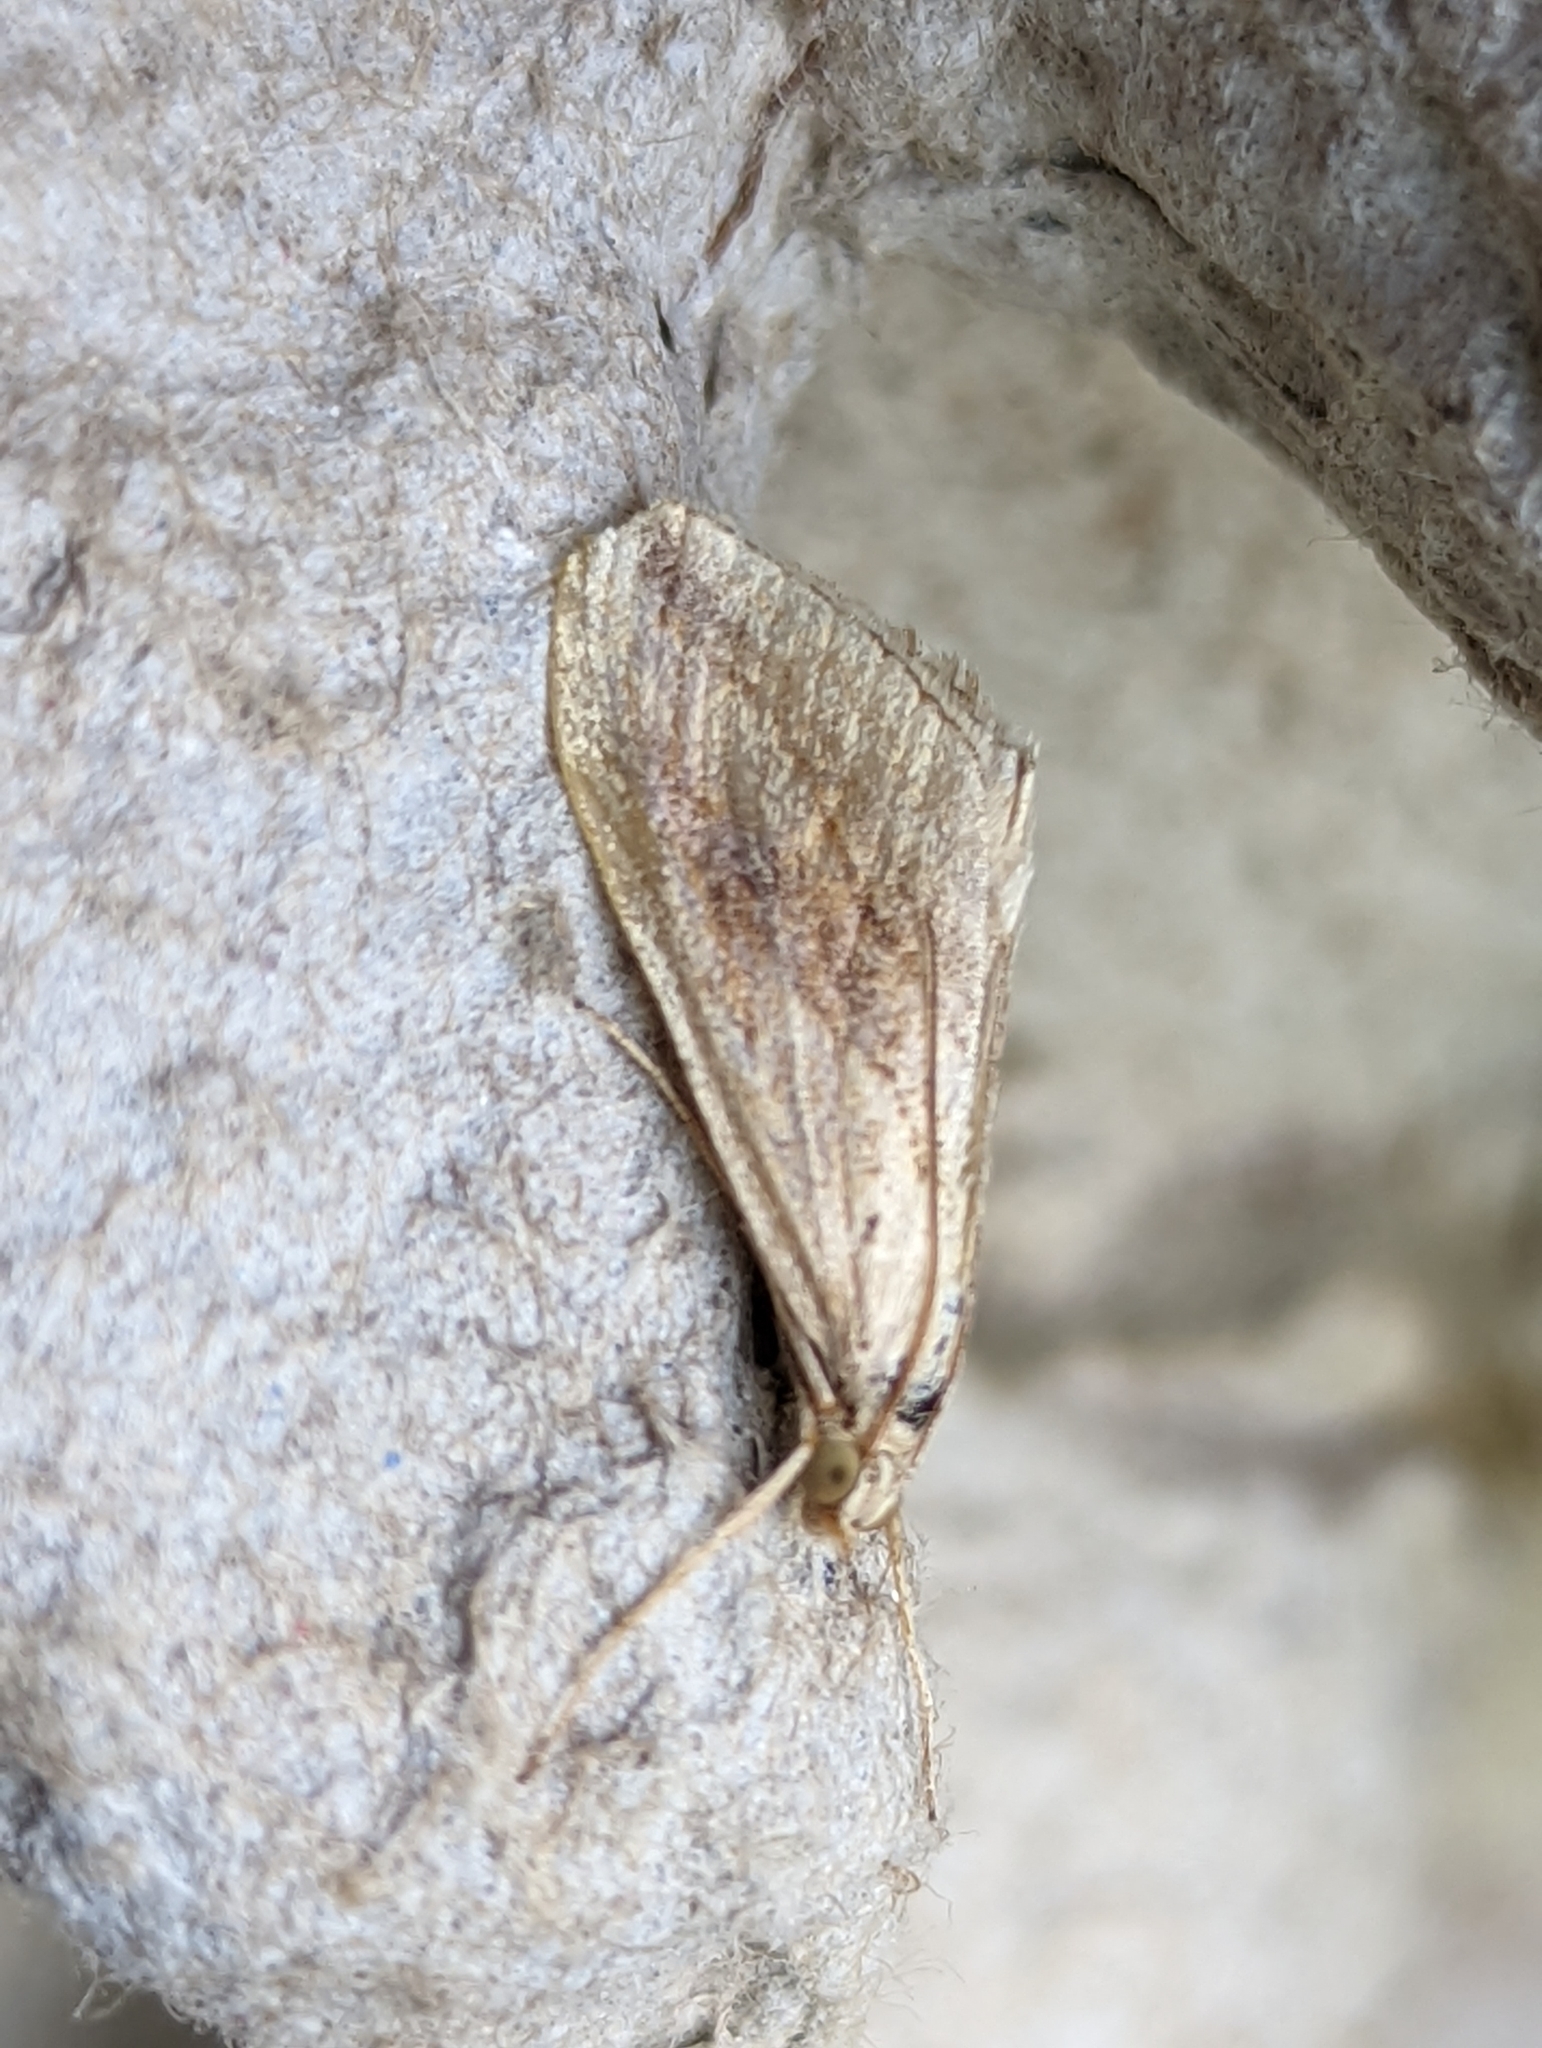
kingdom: Animalia
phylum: Arthropoda
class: Insecta
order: Lepidoptera
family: Crambidae
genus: Evergestis
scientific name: Evergestis forficalis
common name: Garden pebble
